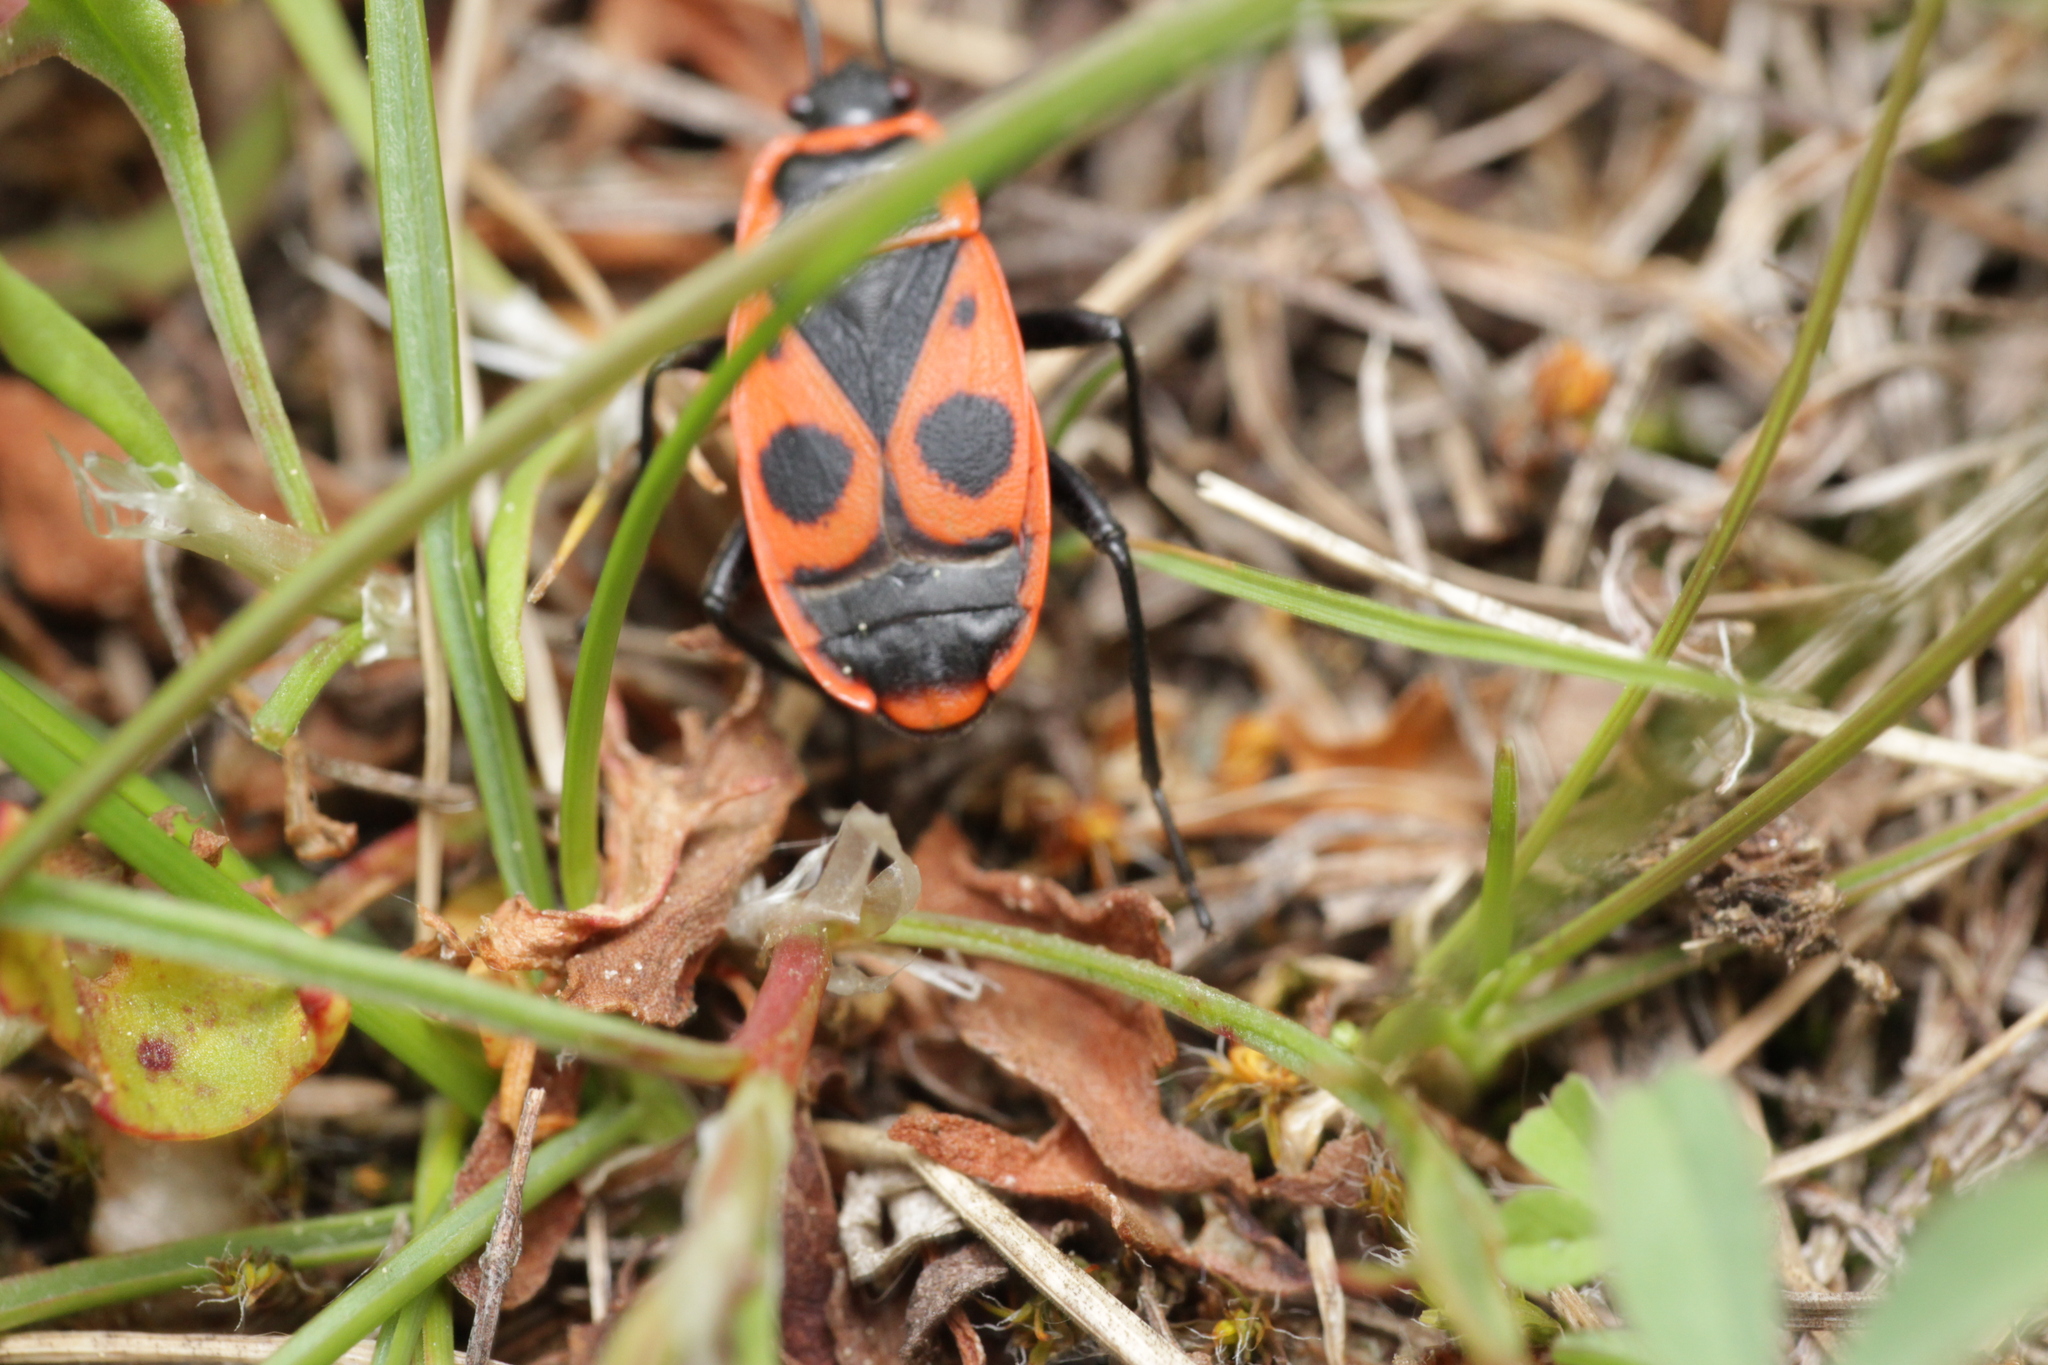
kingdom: Animalia
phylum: Arthropoda
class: Insecta
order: Hemiptera
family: Pyrrhocoridae
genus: Pyrrhocoris
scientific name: Pyrrhocoris apterus
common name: Firebug
